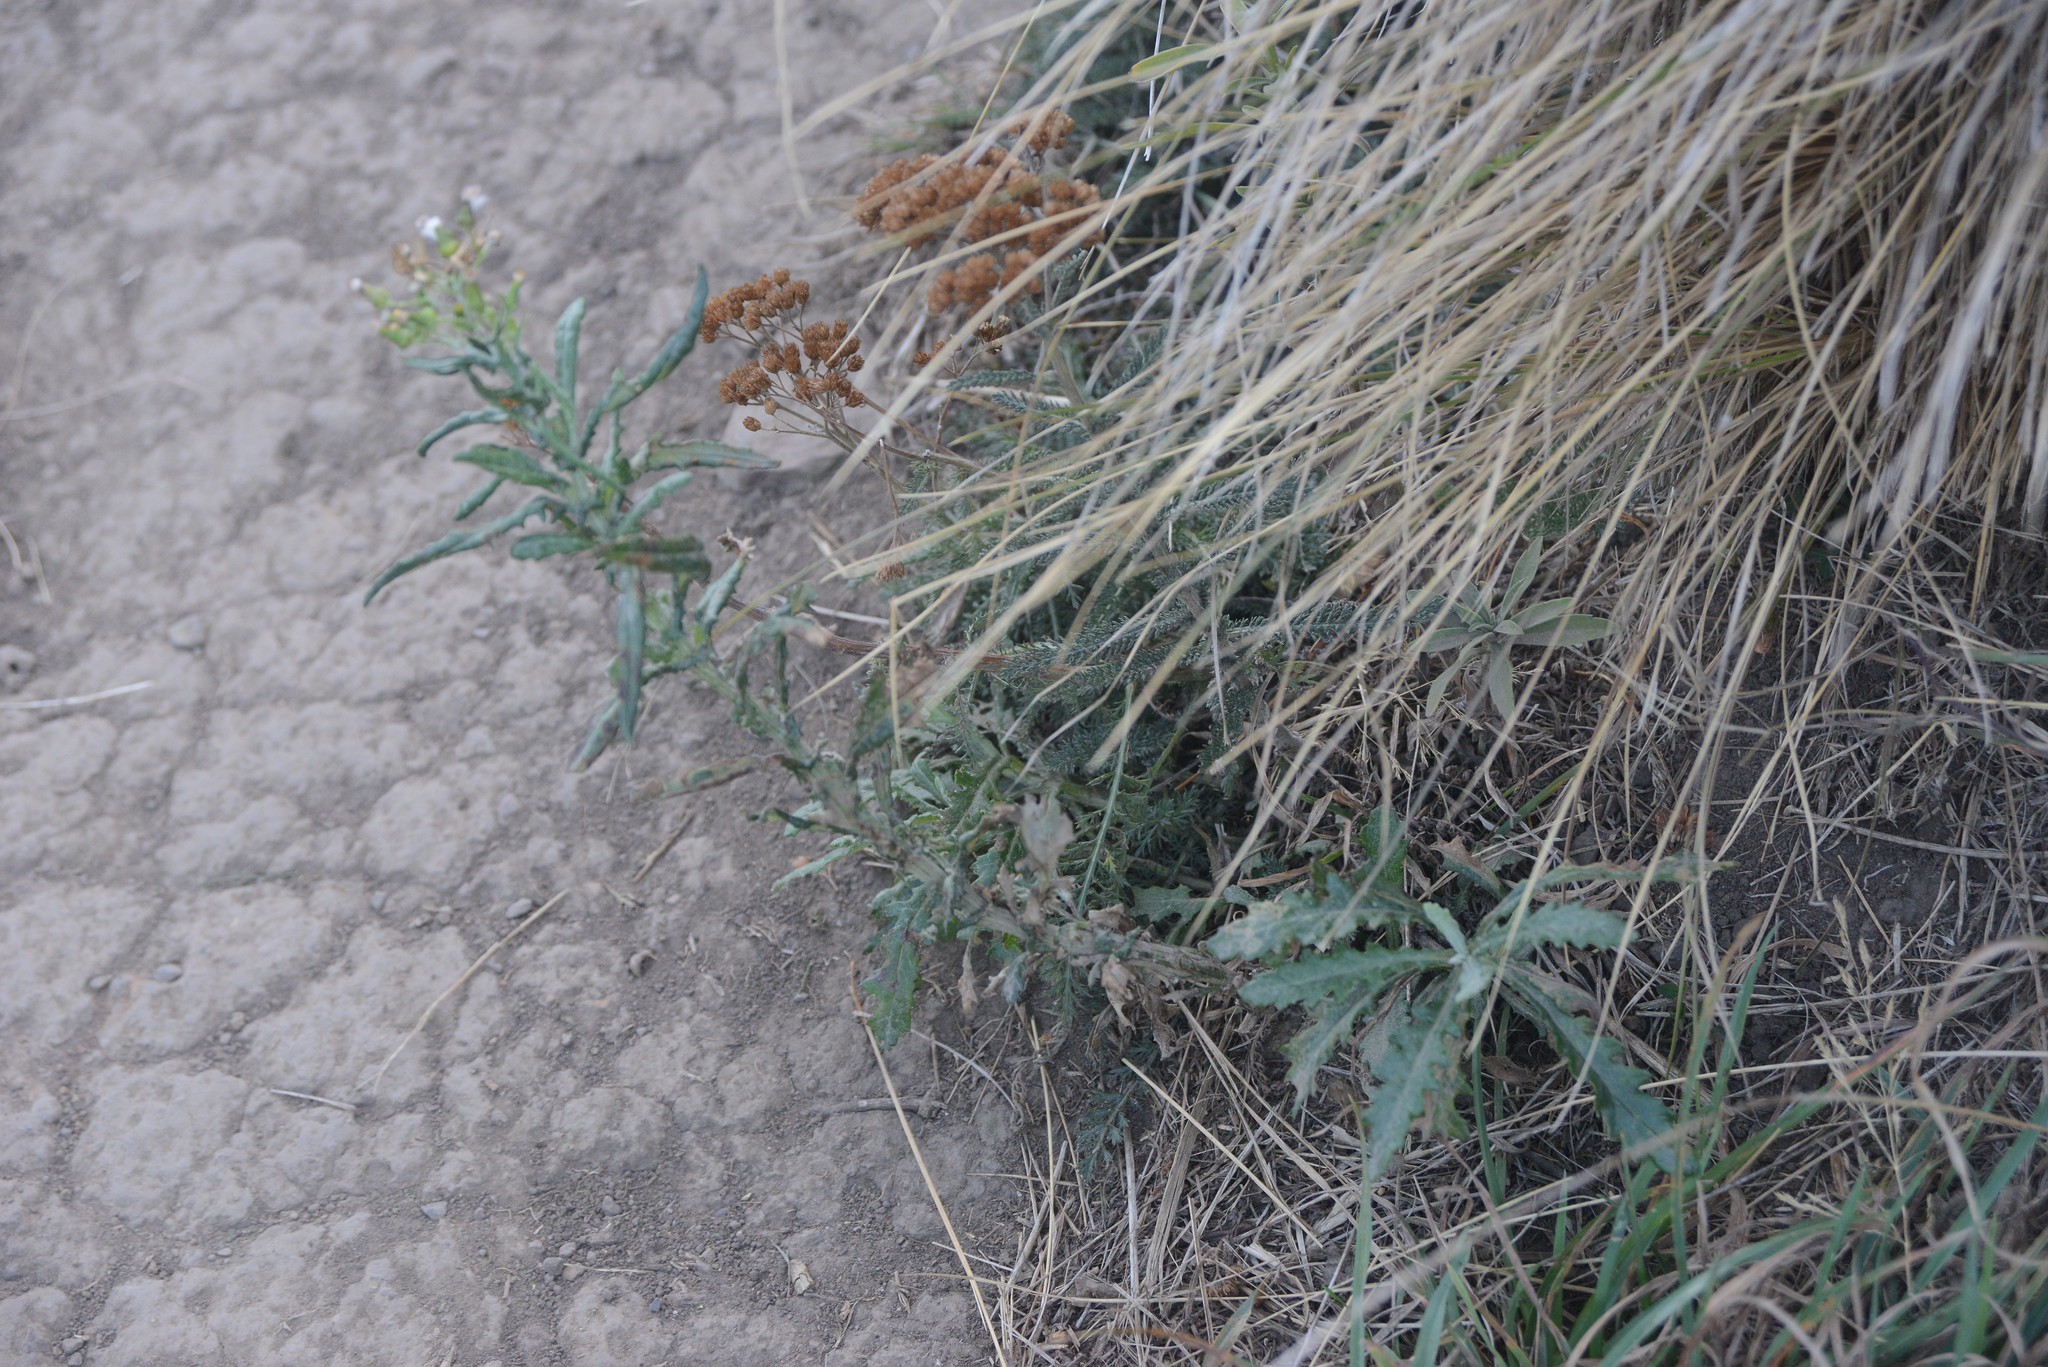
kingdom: Plantae
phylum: Tracheophyta
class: Magnoliopsida
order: Asterales
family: Asteraceae
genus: Senecio
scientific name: Senecio glomeratus
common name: Cutleaf burnweed
